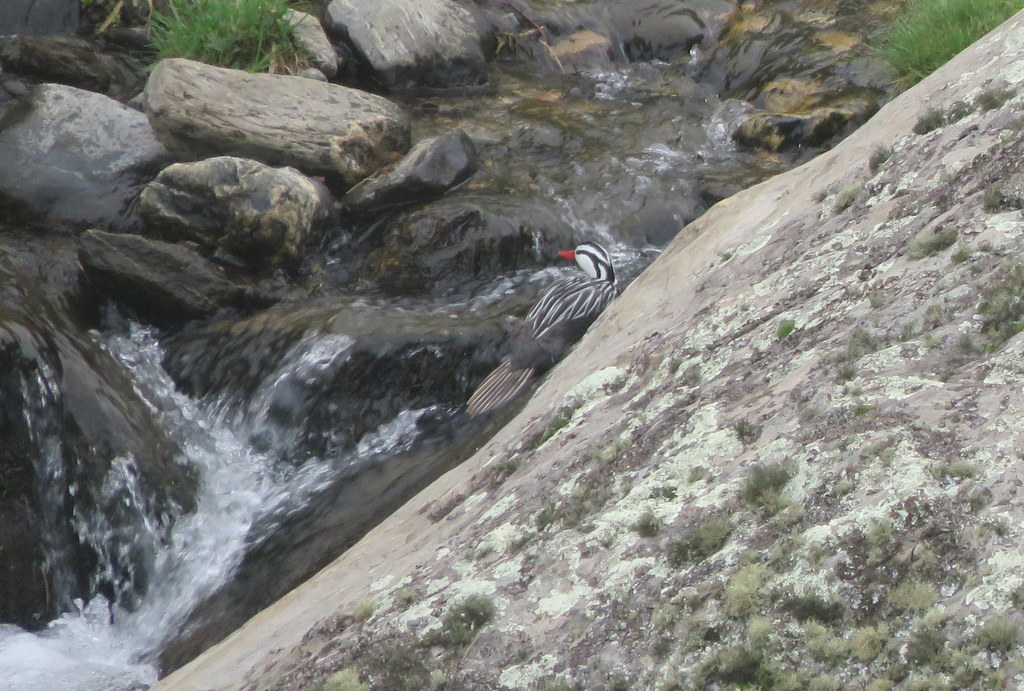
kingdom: Animalia
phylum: Chordata
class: Aves
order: Anseriformes
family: Anatidae
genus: Merganetta
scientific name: Merganetta armata
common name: Torrent duck
